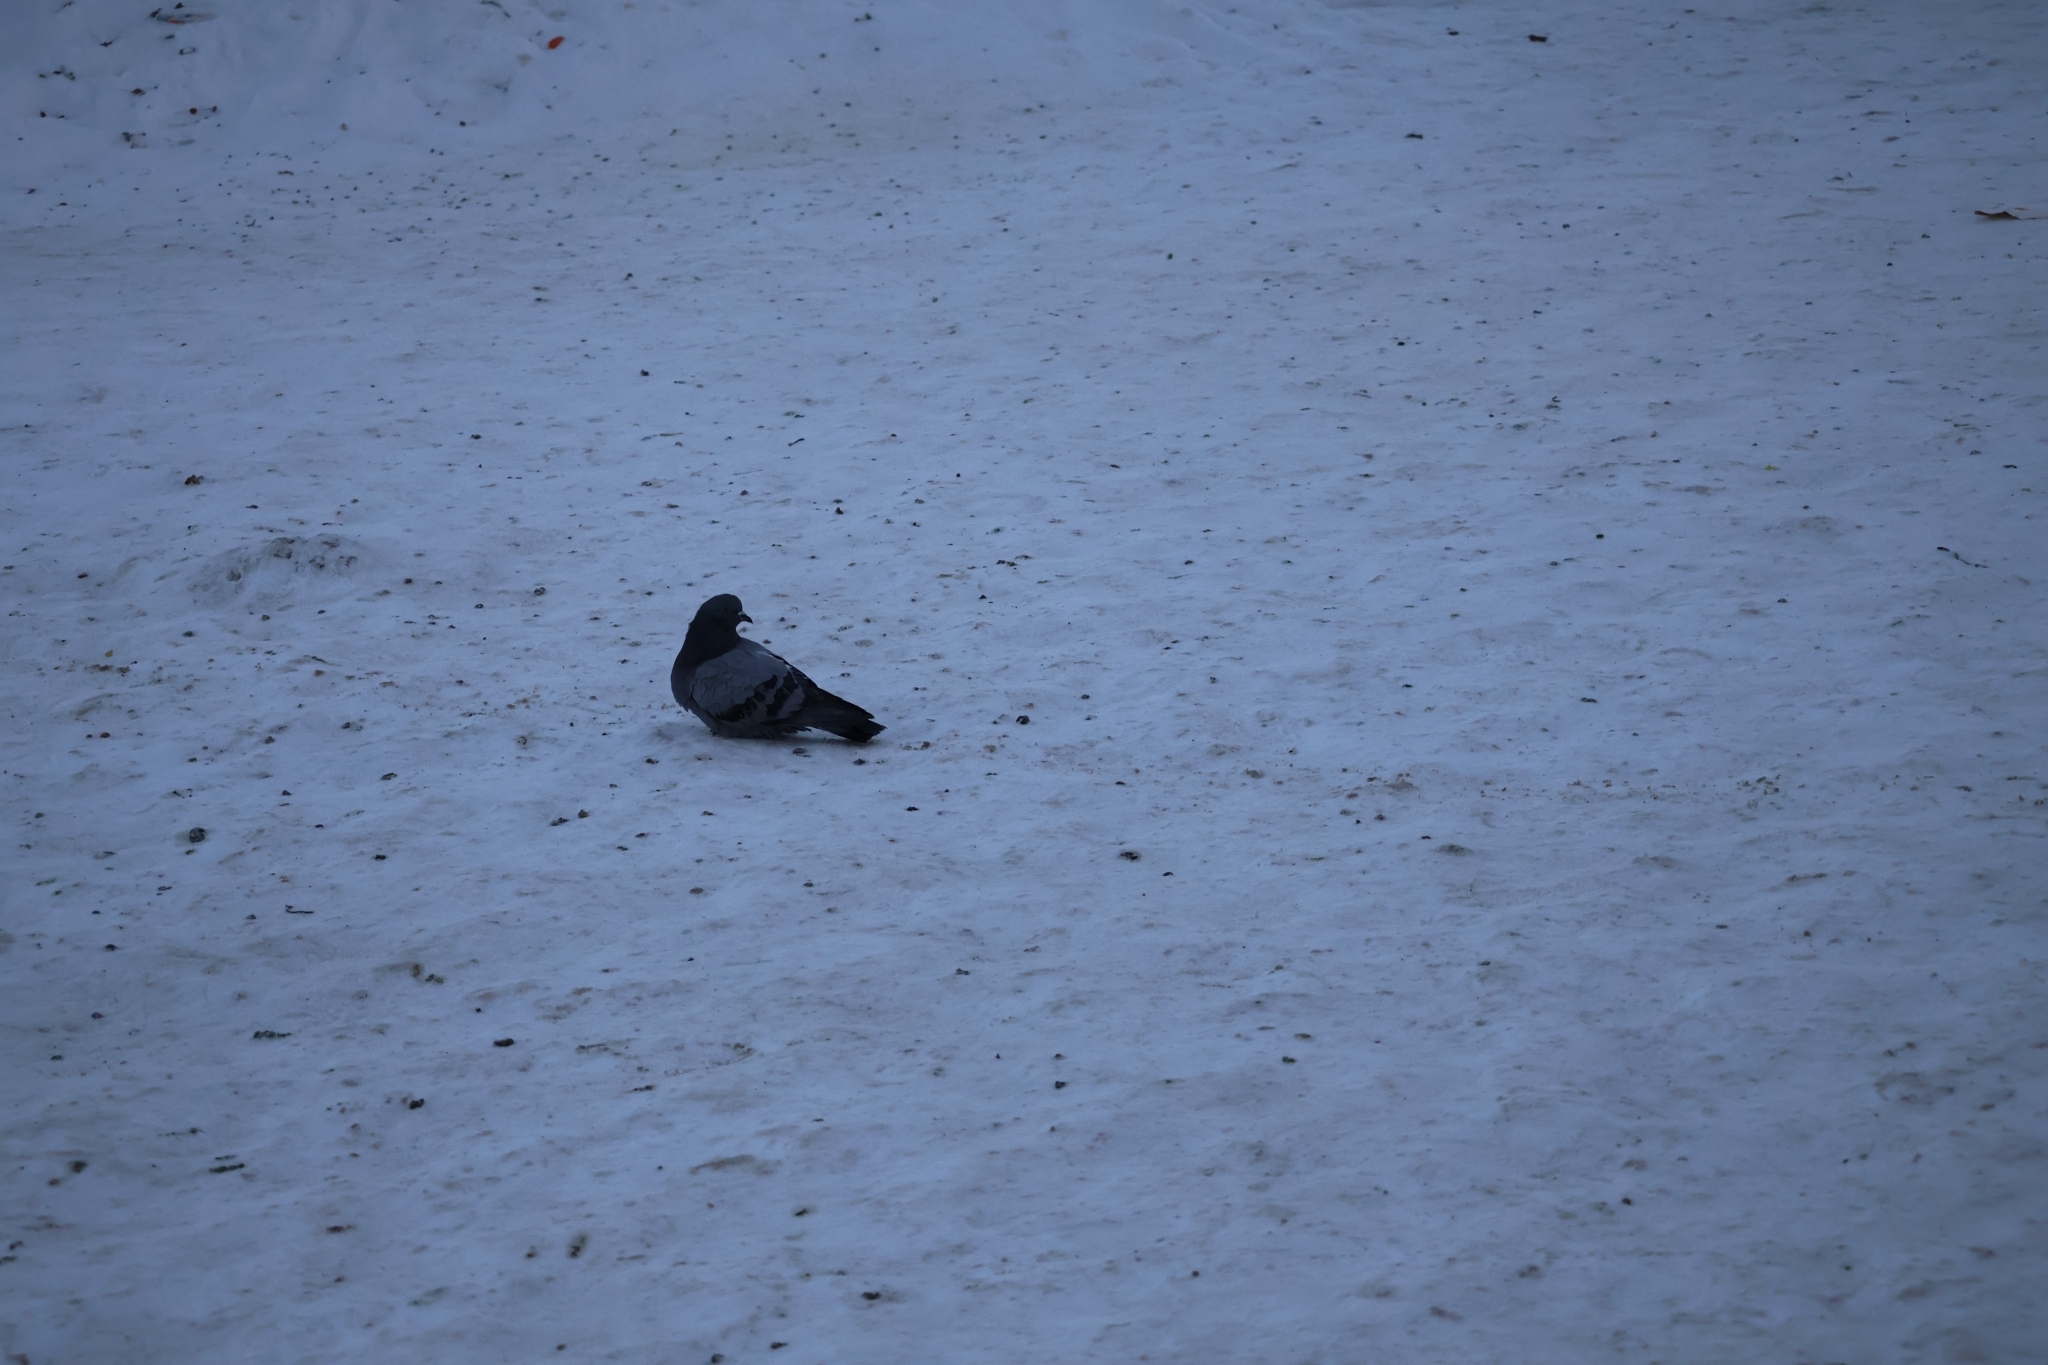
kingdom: Animalia
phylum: Chordata
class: Aves
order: Columbiformes
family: Columbidae
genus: Columba
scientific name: Columba livia
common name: Rock pigeon
